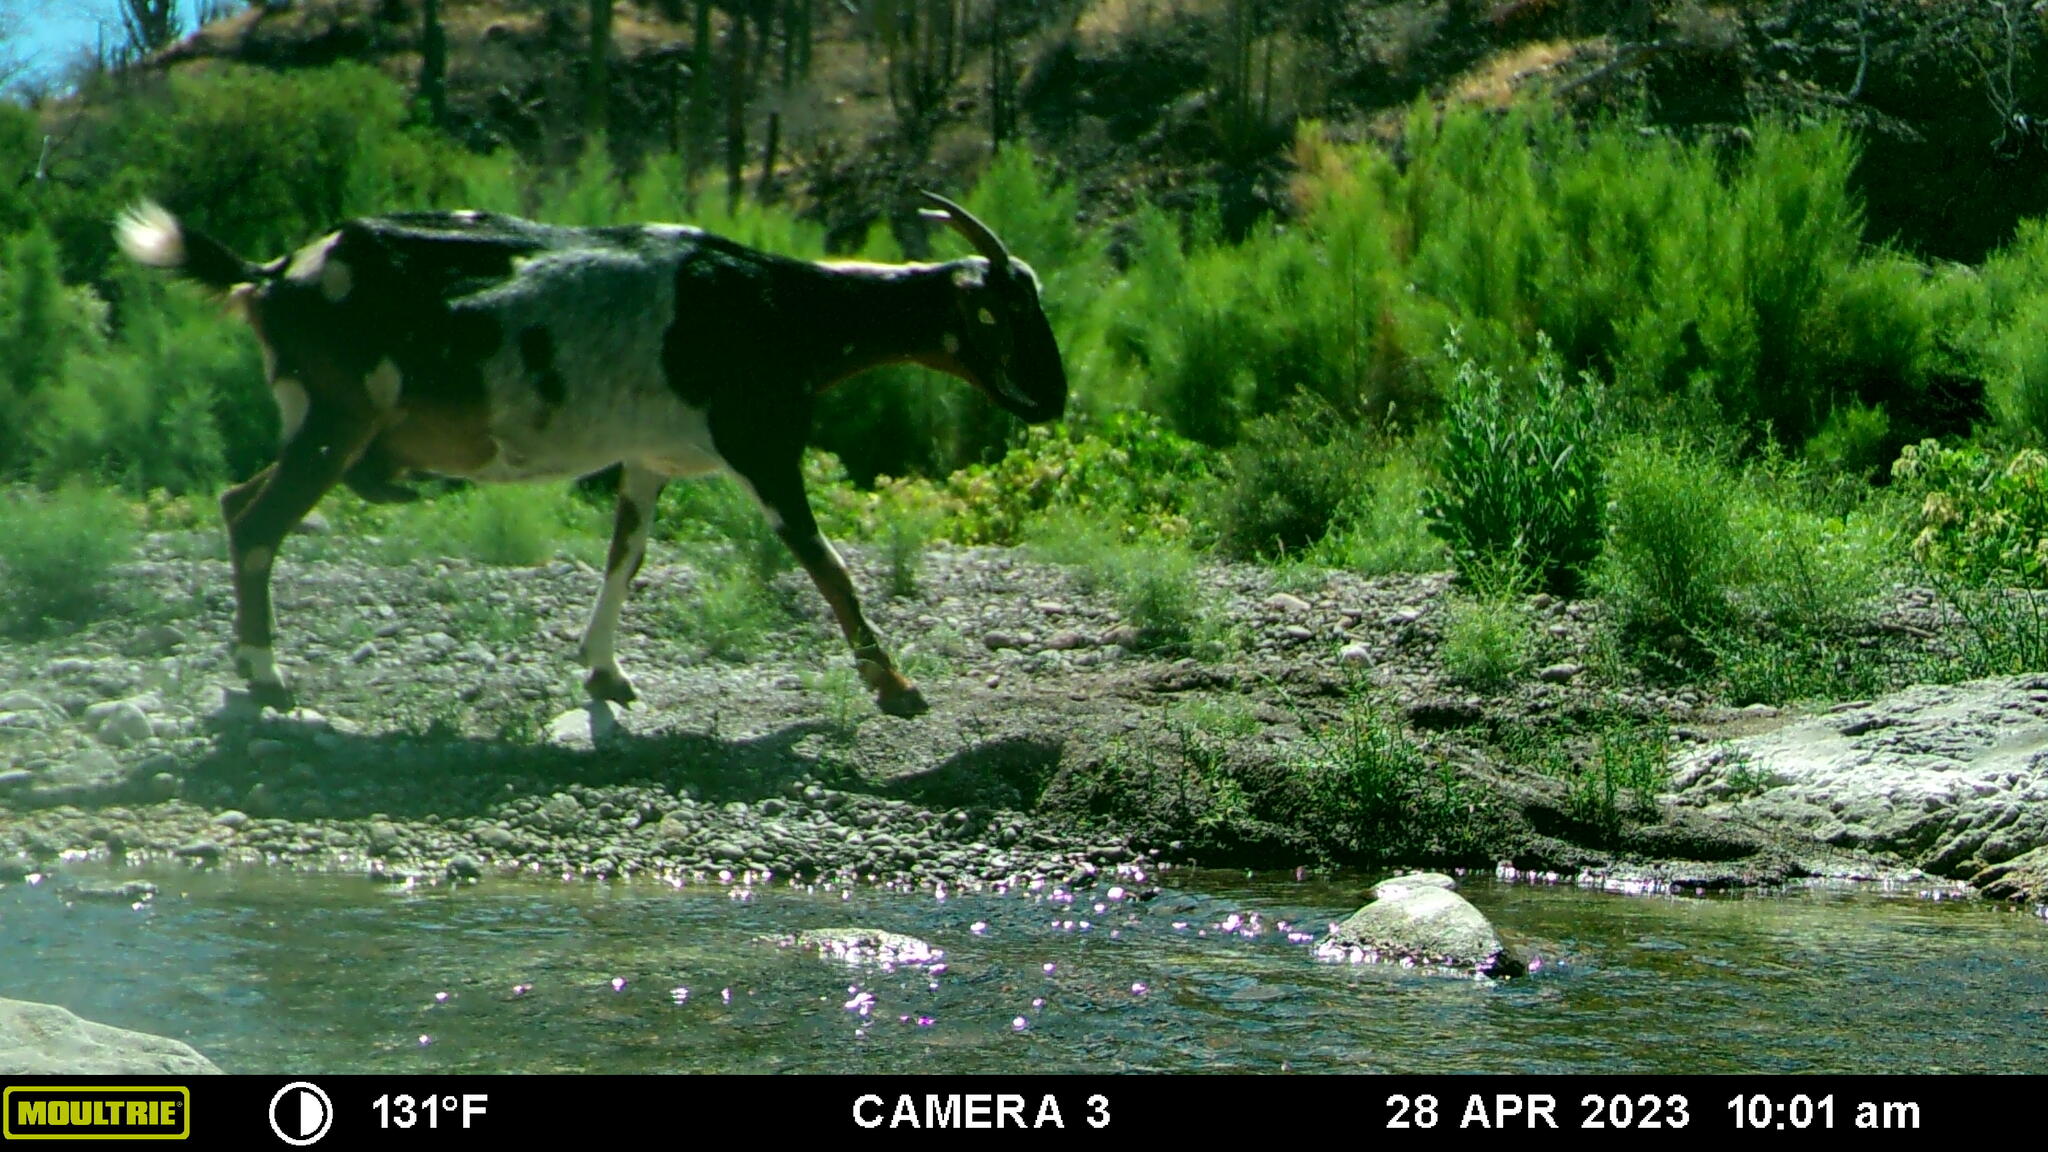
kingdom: Animalia
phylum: Chordata
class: Mammalia
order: Artiodactyla
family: Bovidae
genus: Capra
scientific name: Capra hircus
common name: Domestic goat
